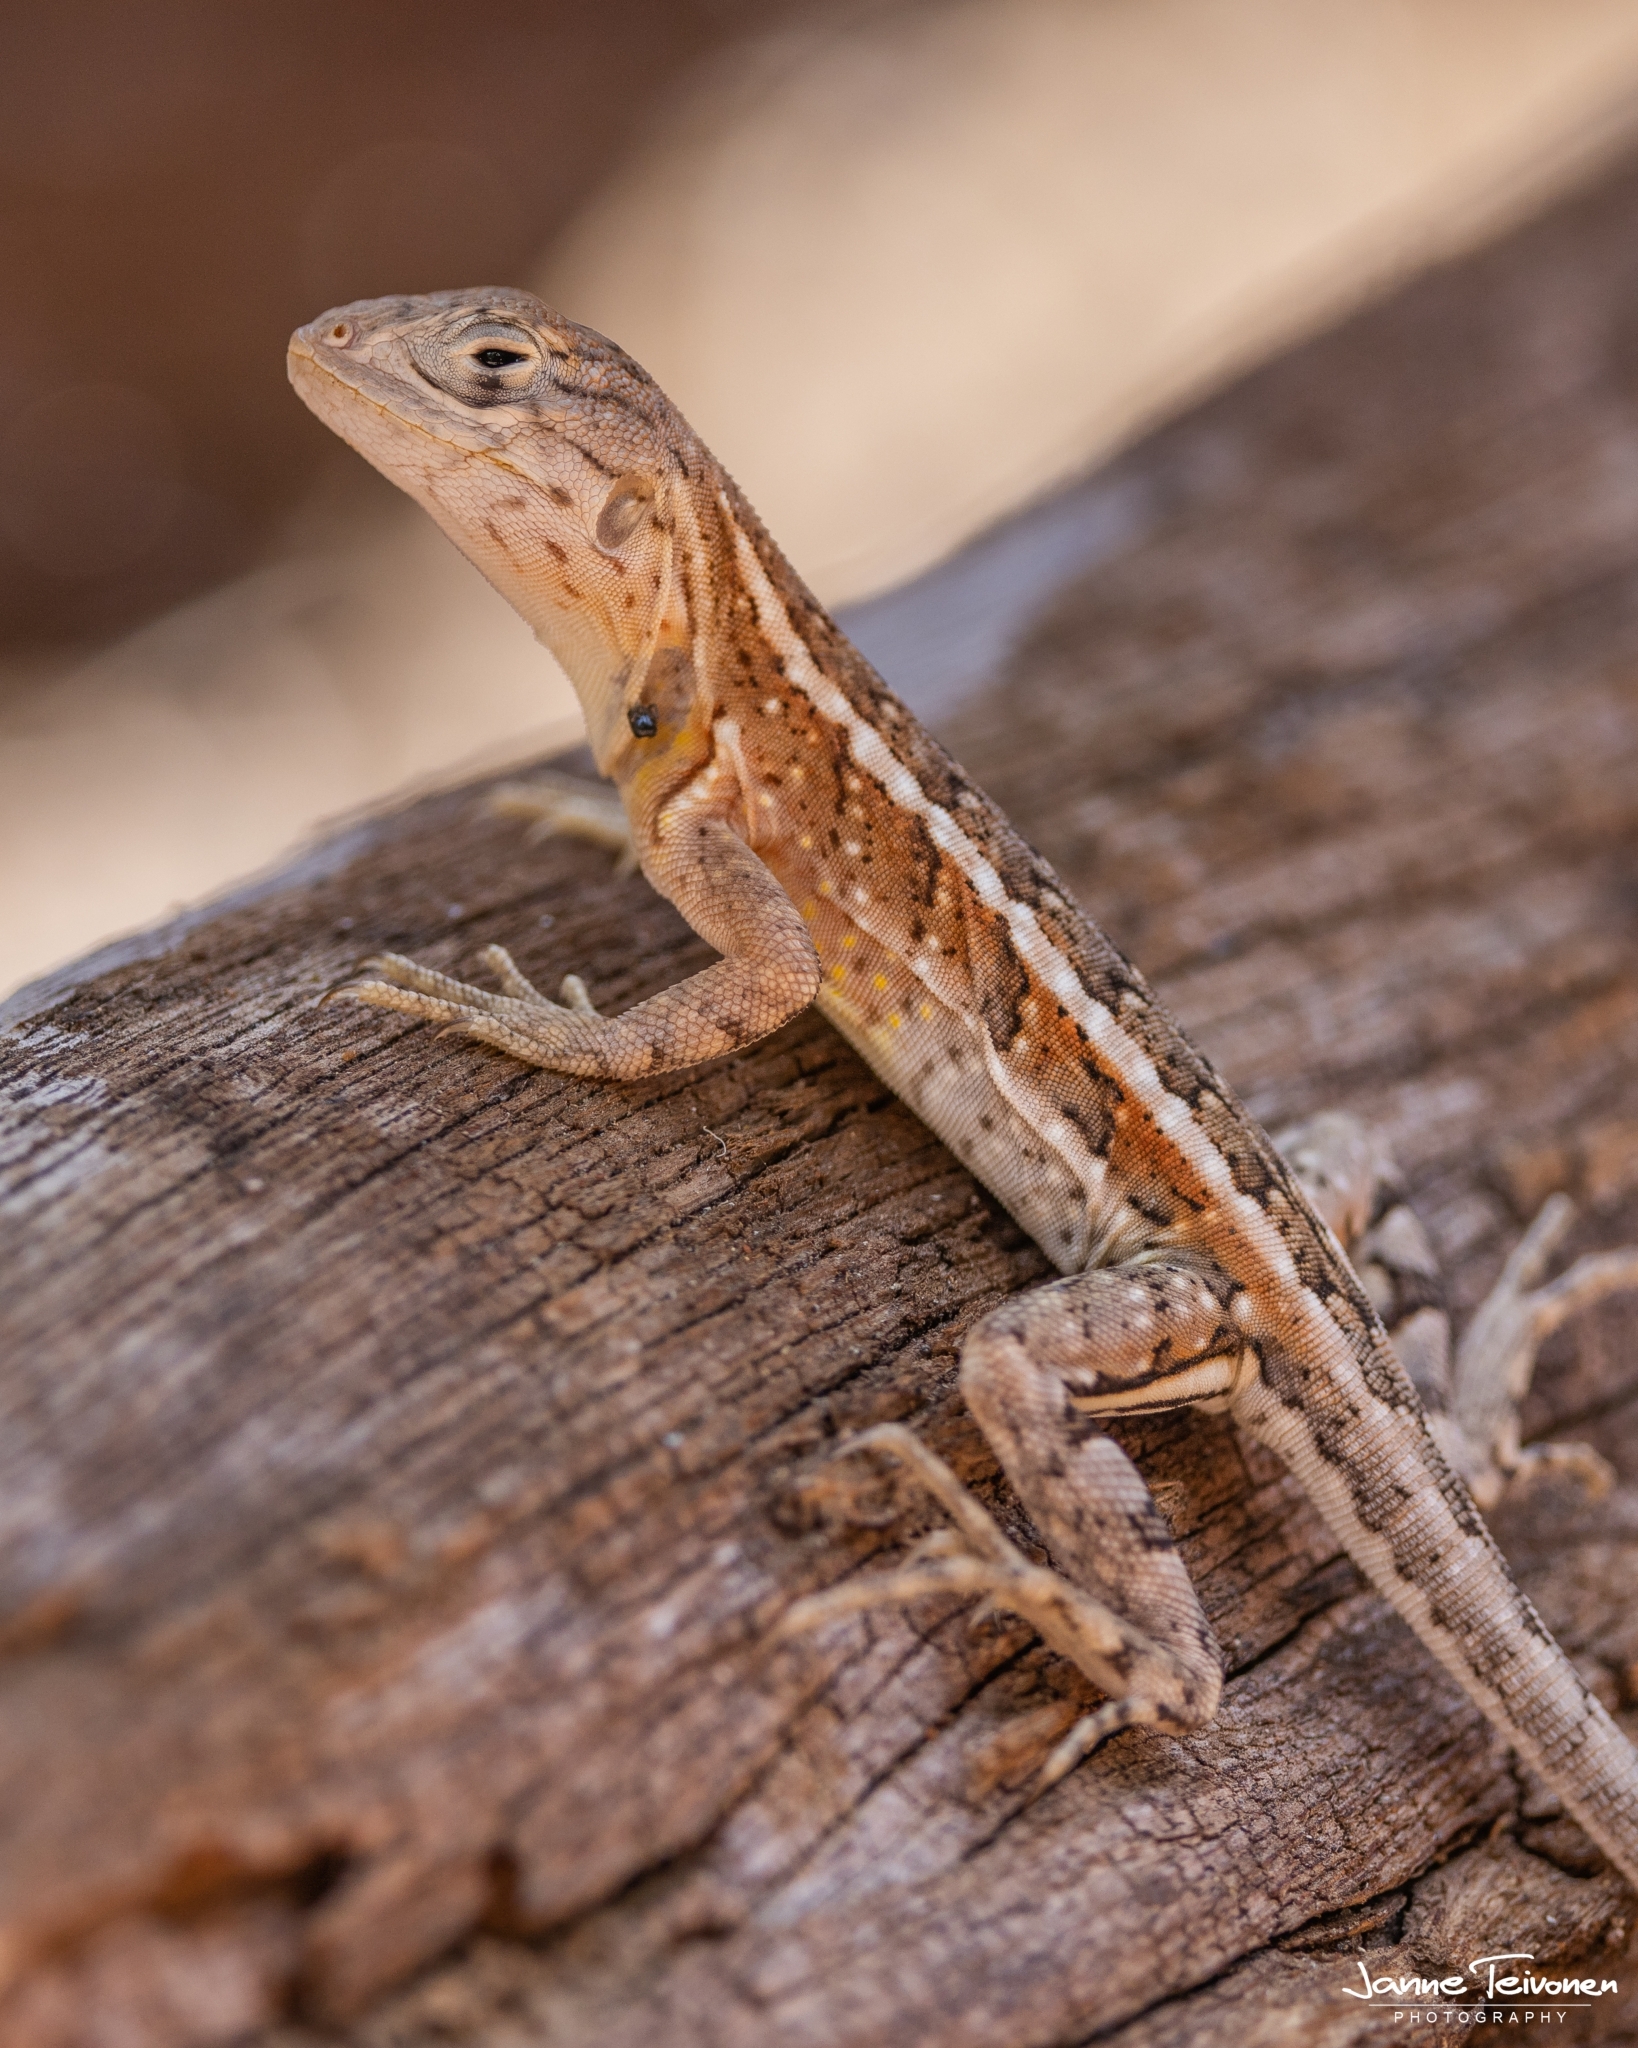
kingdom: Animalia
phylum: Chordata
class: Squamata
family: Opluridae
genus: Chalarodon
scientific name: Chalarodon madagascariensis
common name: Madagascar iguana
